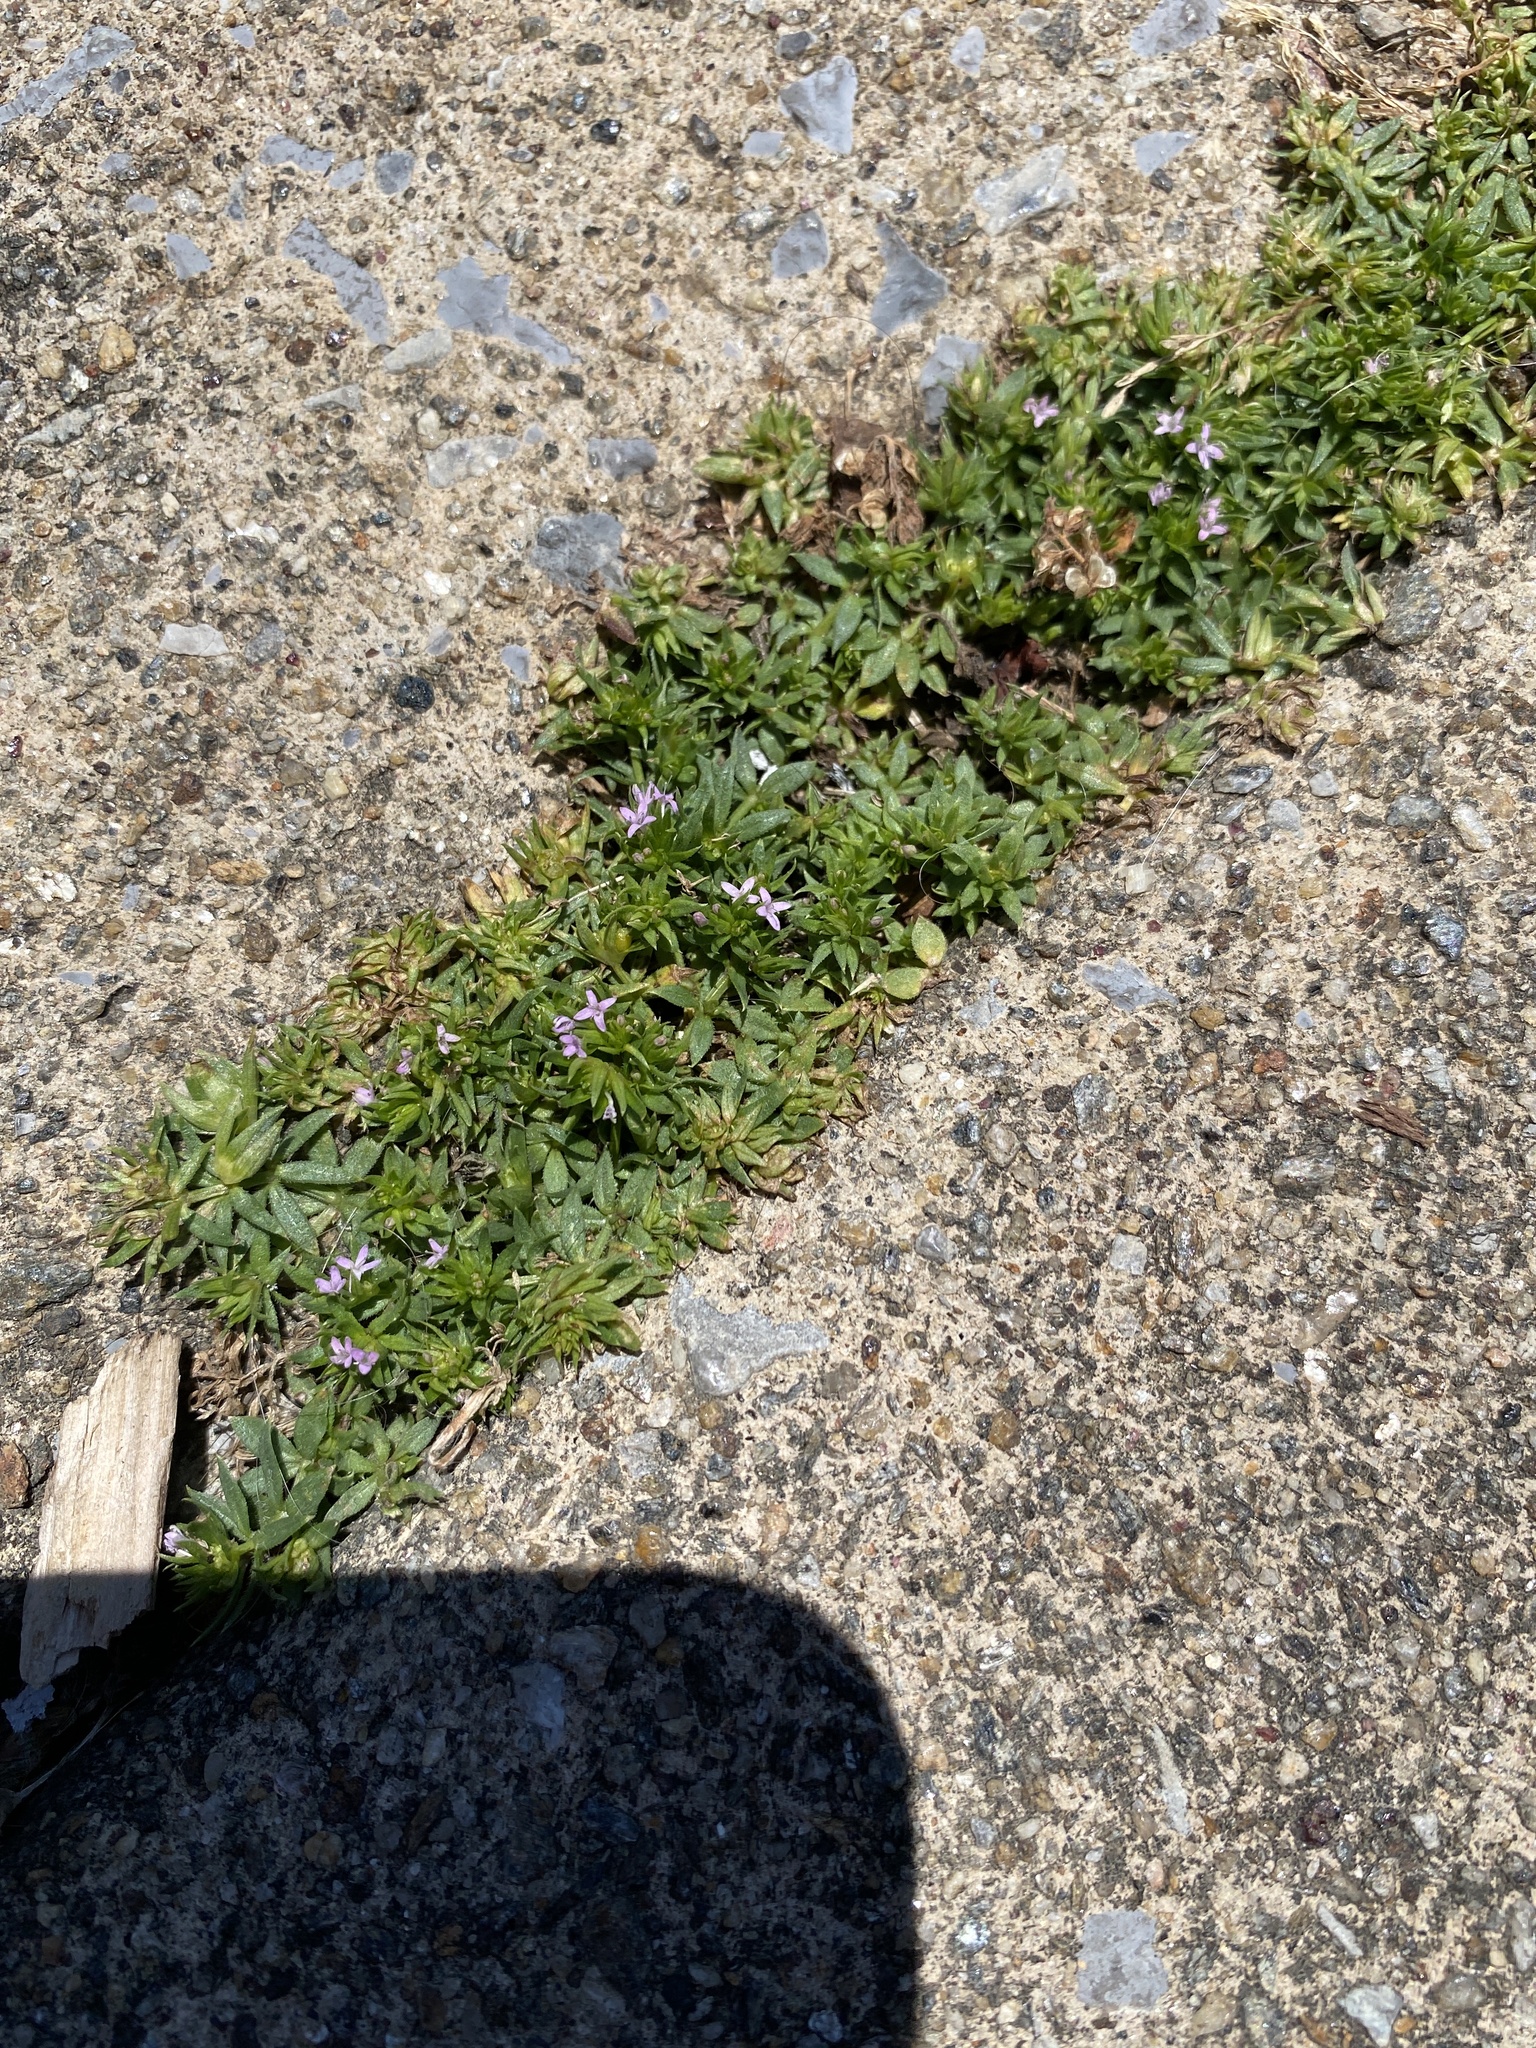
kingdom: Plantae
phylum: Tracheophyta
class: Magnoliopsida
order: Gentianales
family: Rubiaceae
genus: Sherardia
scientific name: Sherardia arvensis
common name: Field madder
